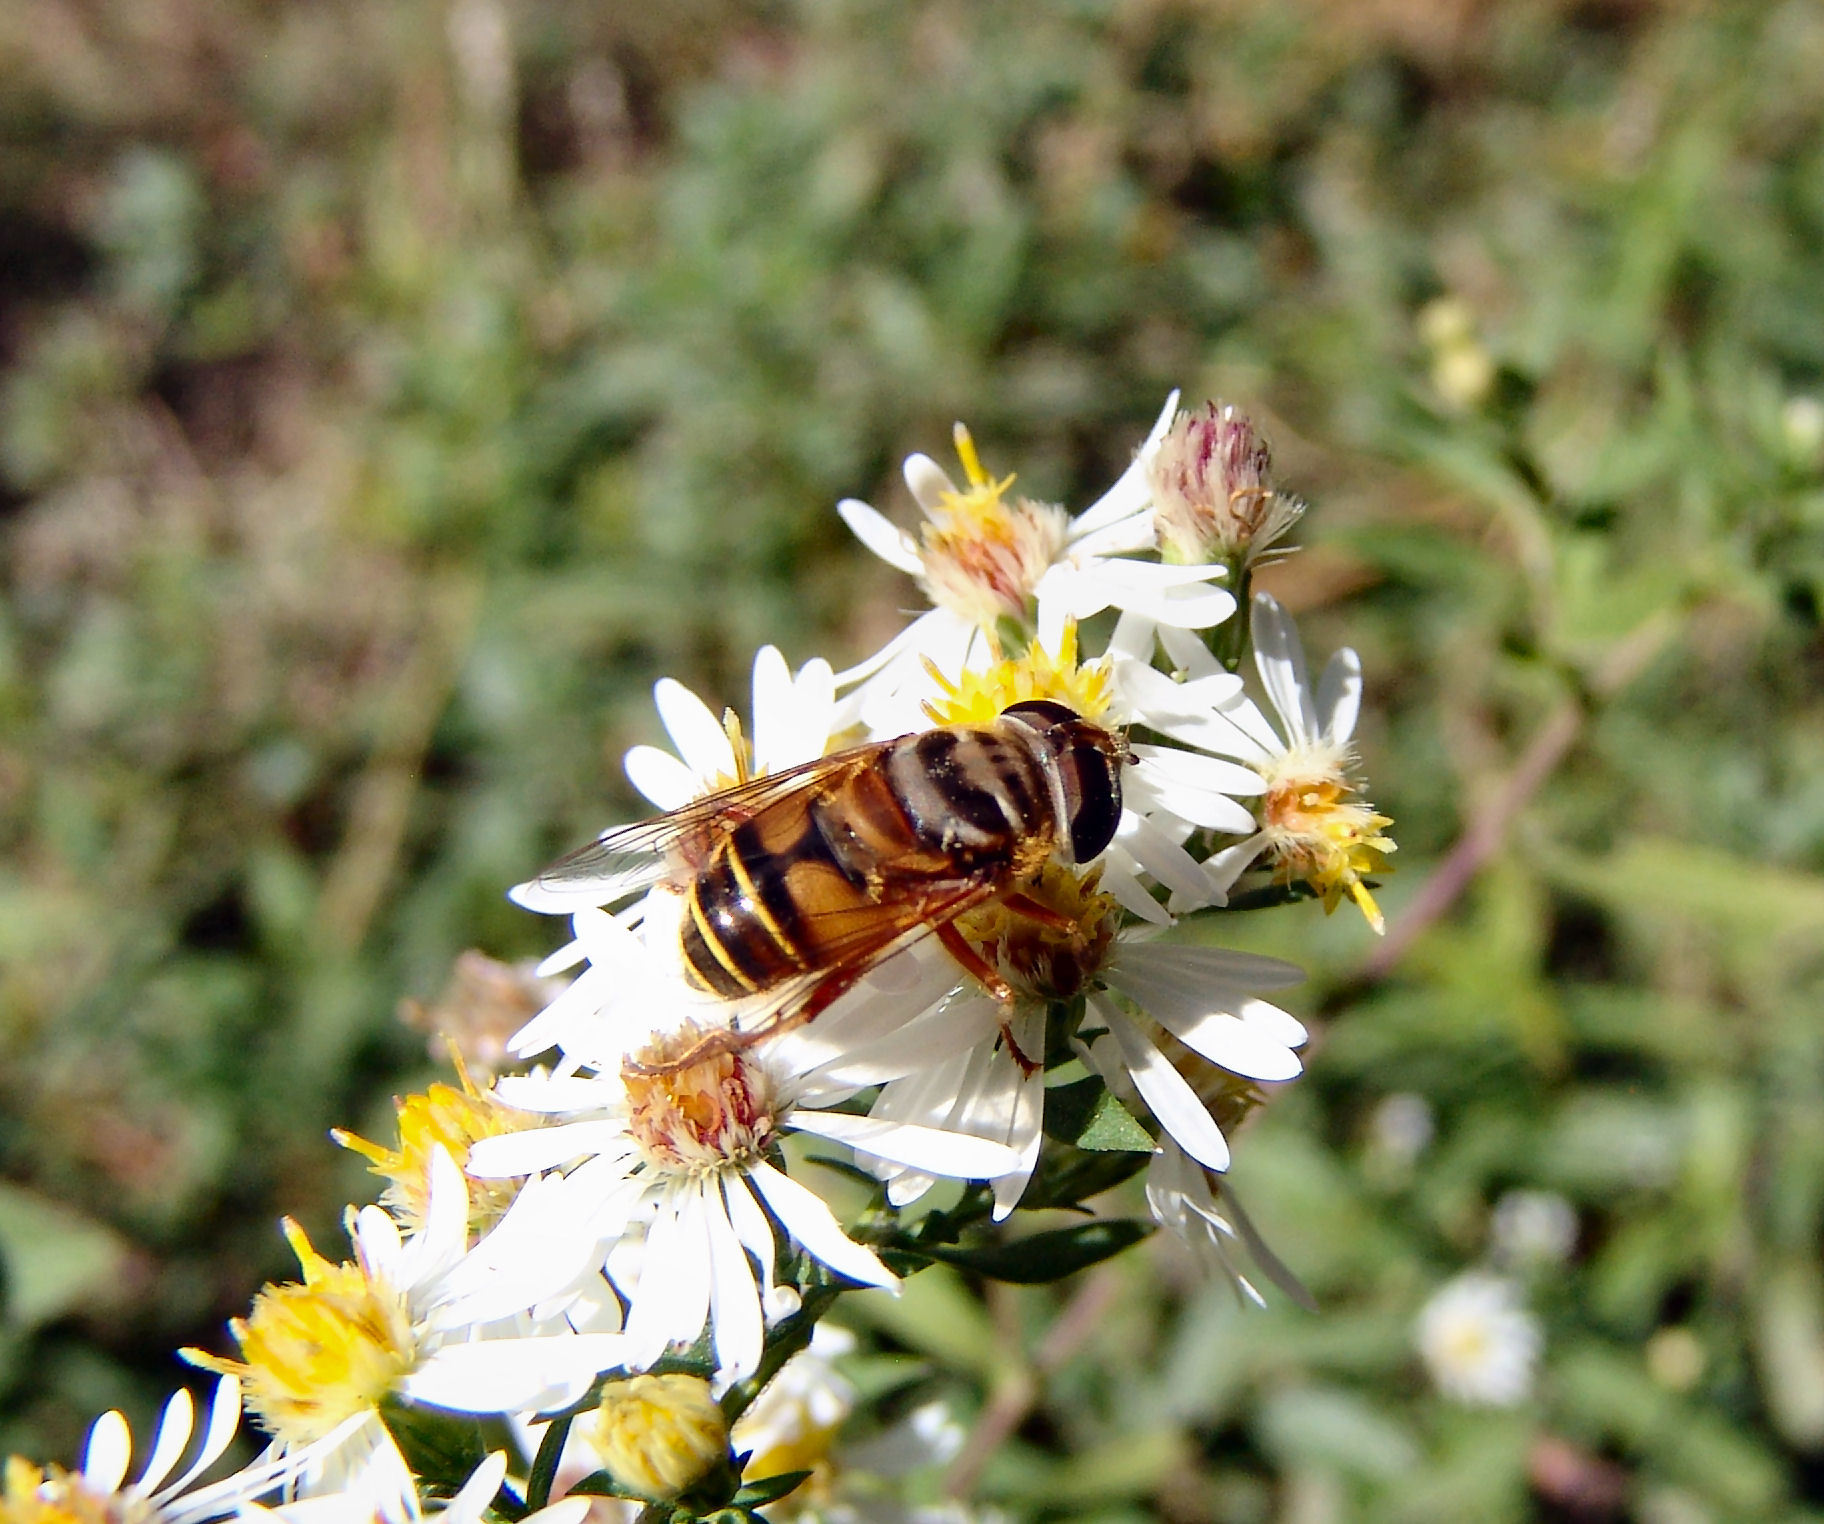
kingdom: Animalia
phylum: Arthropoda
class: Insecta
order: Diptera
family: Syrphidae
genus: Palpada
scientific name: Palpada vinetorum
